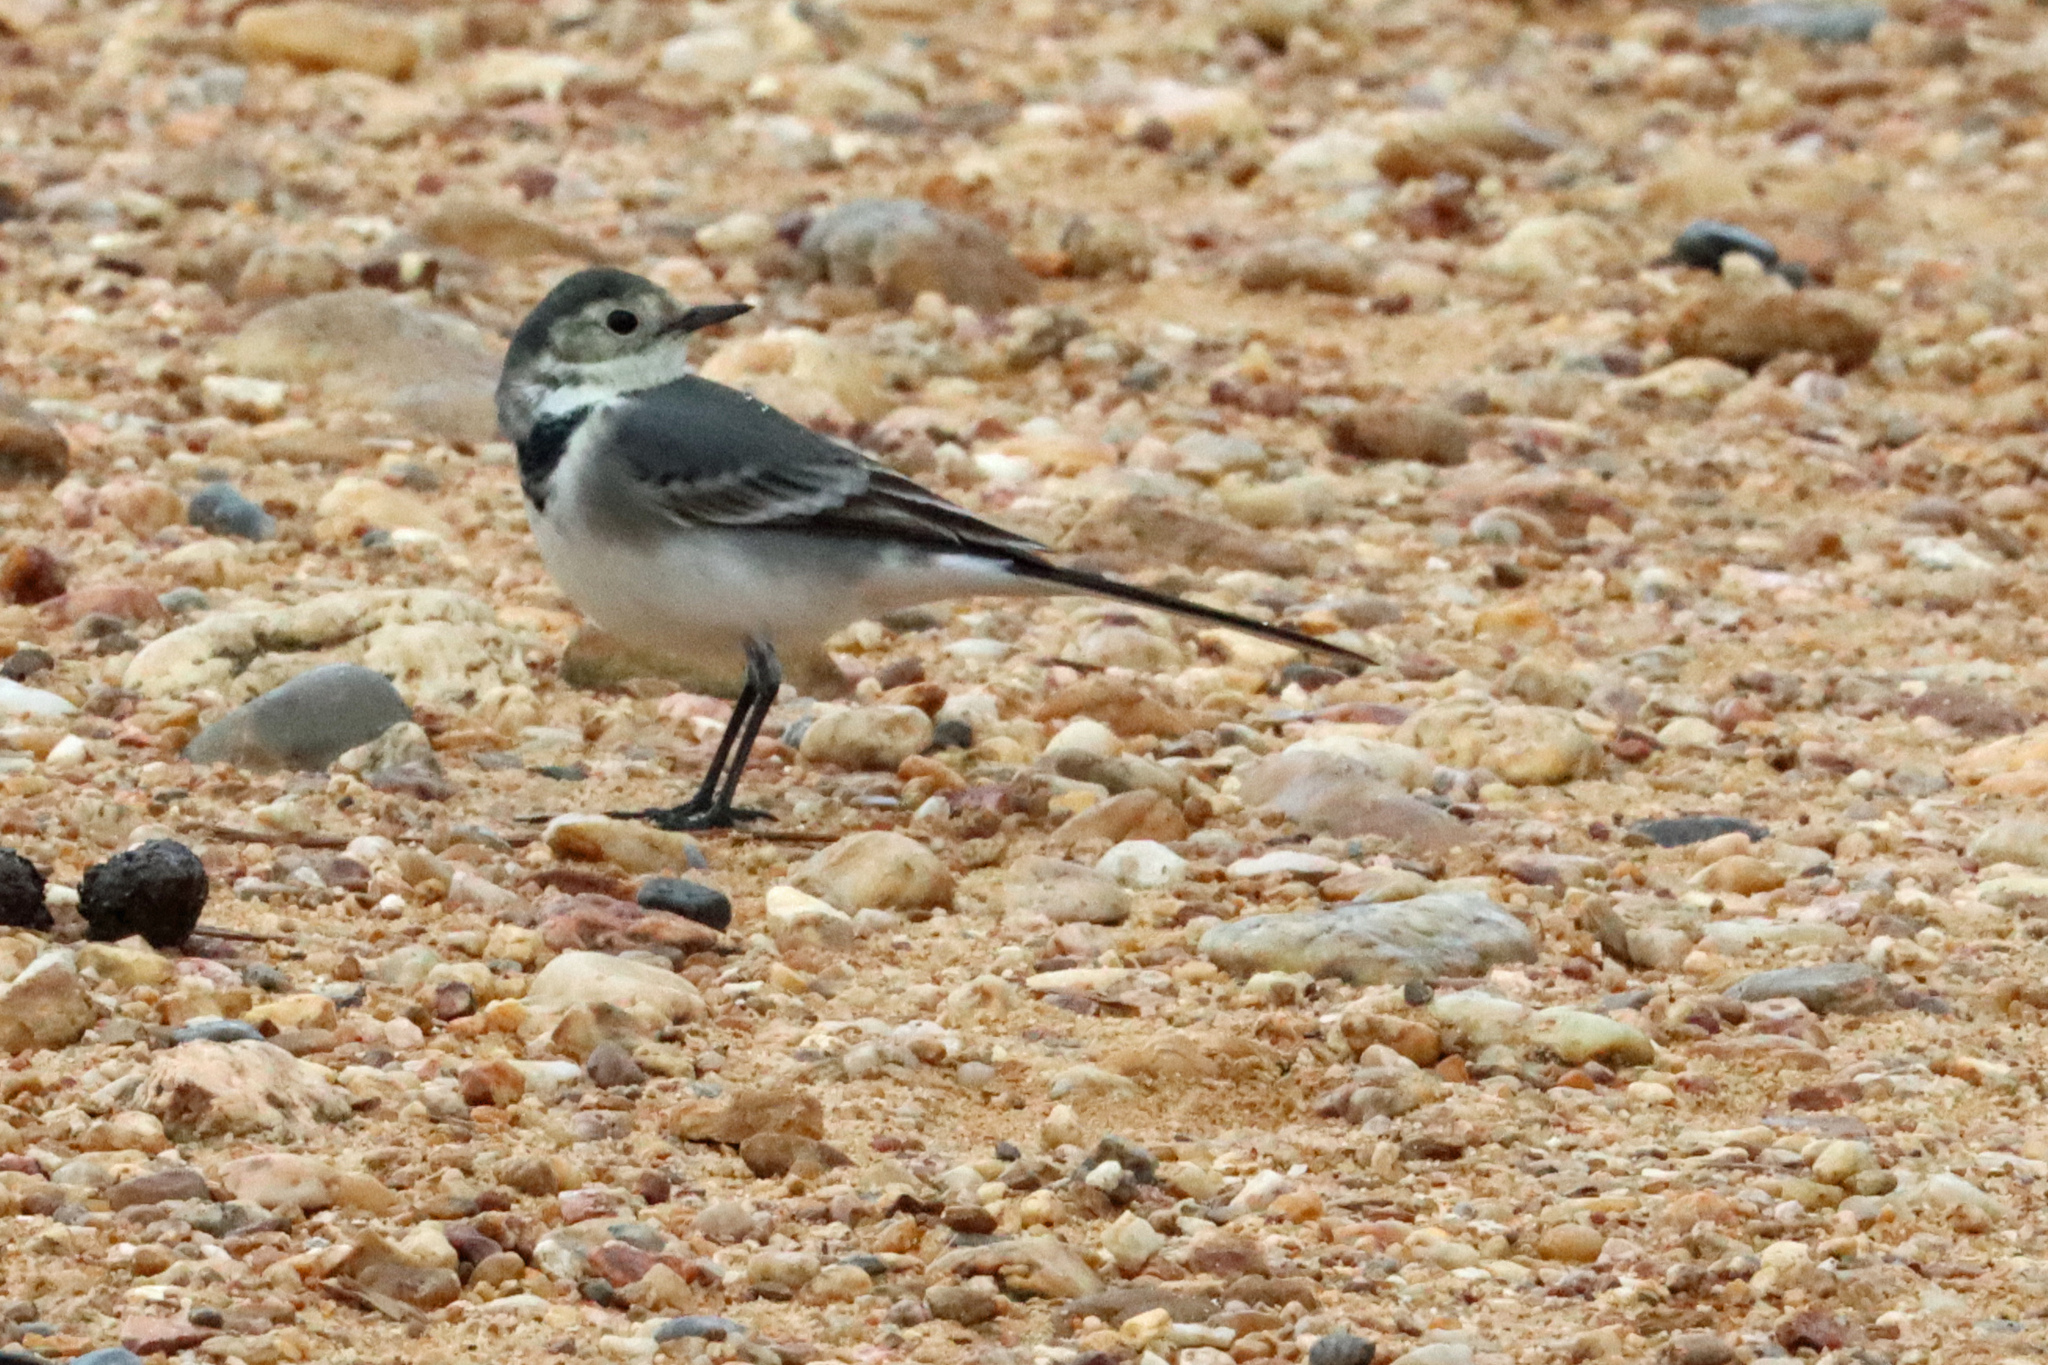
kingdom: Animalia
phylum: Chordata
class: Aves
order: Passeriformes
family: Motacillidae
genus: Motacilla
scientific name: Motacilla alba
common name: White wagtail
